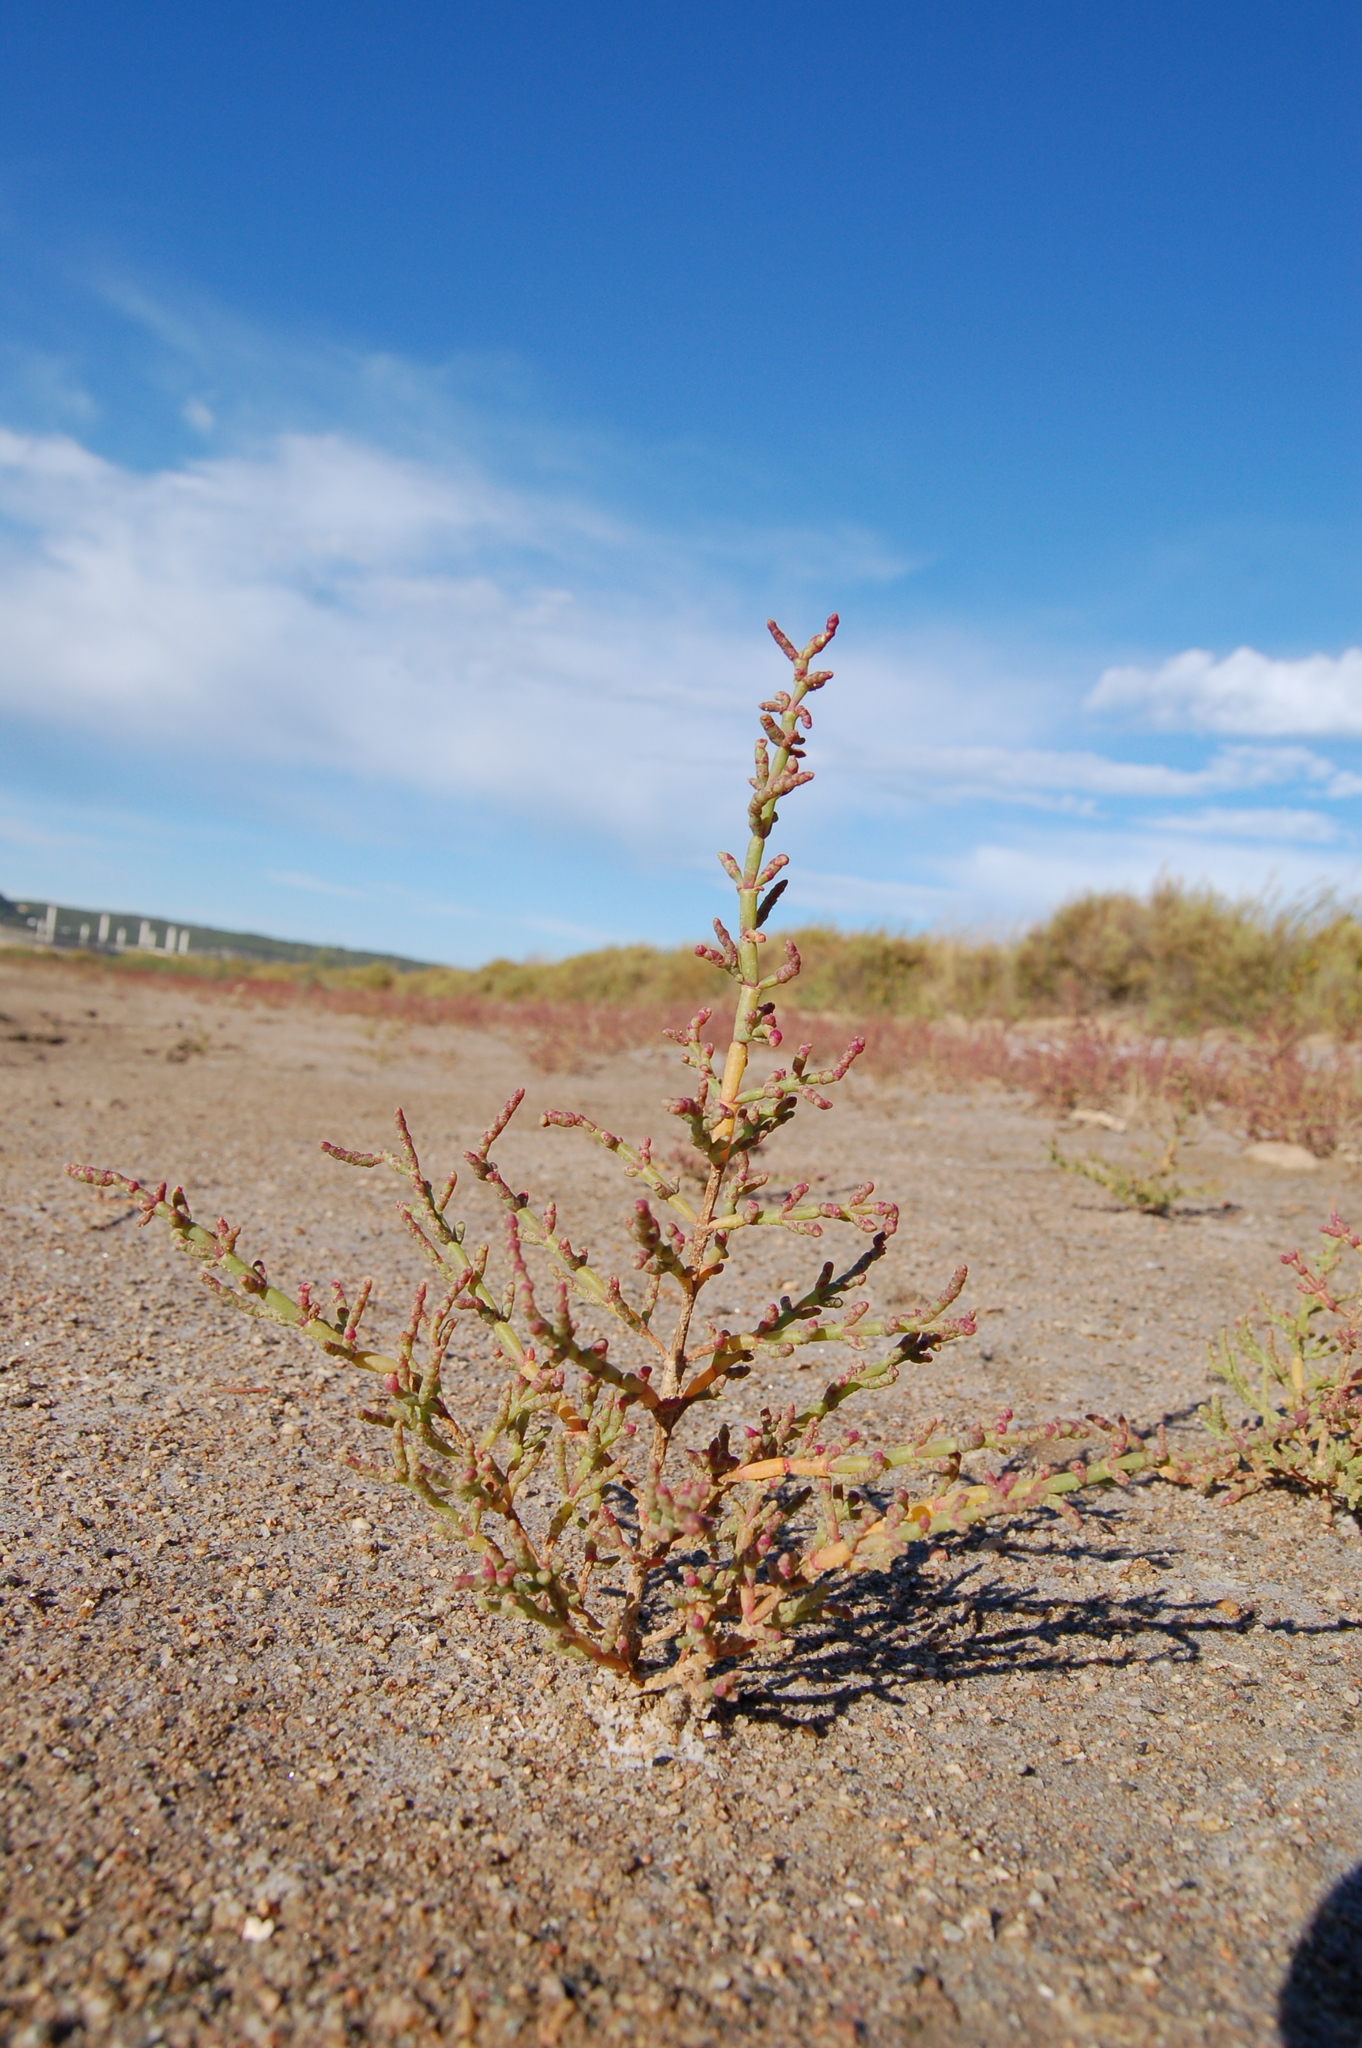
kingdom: Plantae
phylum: Tracheophyta
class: Magnoliopsida
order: Caryophyllales
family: Amaranthaceae
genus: Salicornia
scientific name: Salicornia perennans
